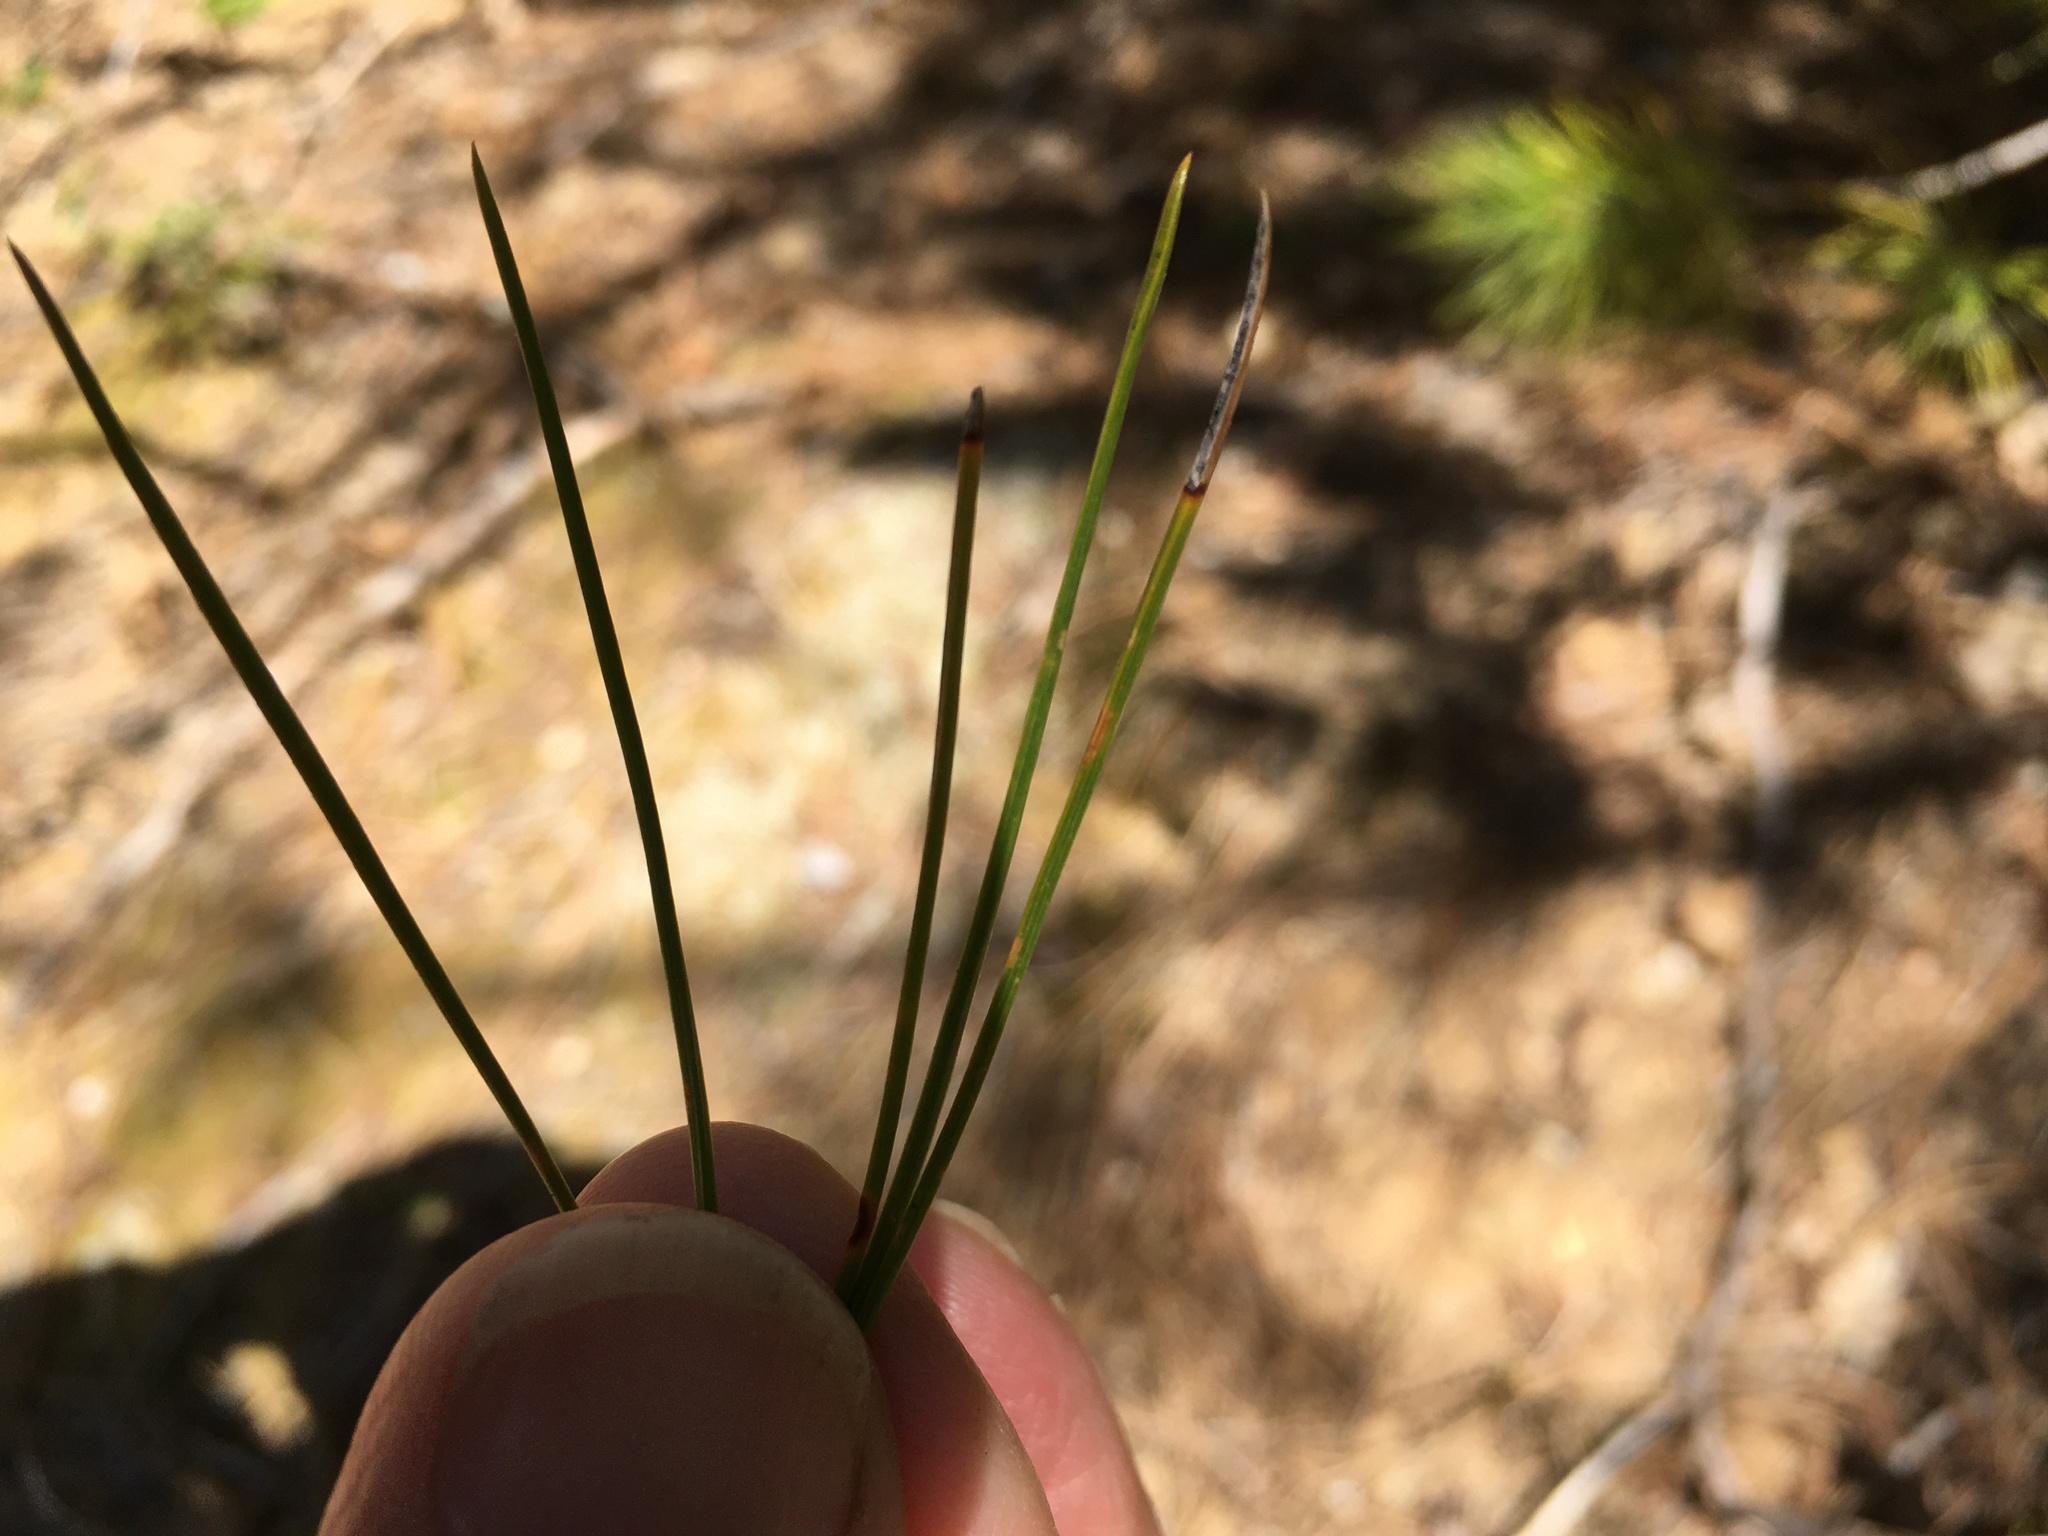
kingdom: Plantae
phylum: Tracheophyta
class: Pinopsida
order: Pinales
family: Pinaceae
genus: Pinus
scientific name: Pinus lambertiana
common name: Sugar pine
